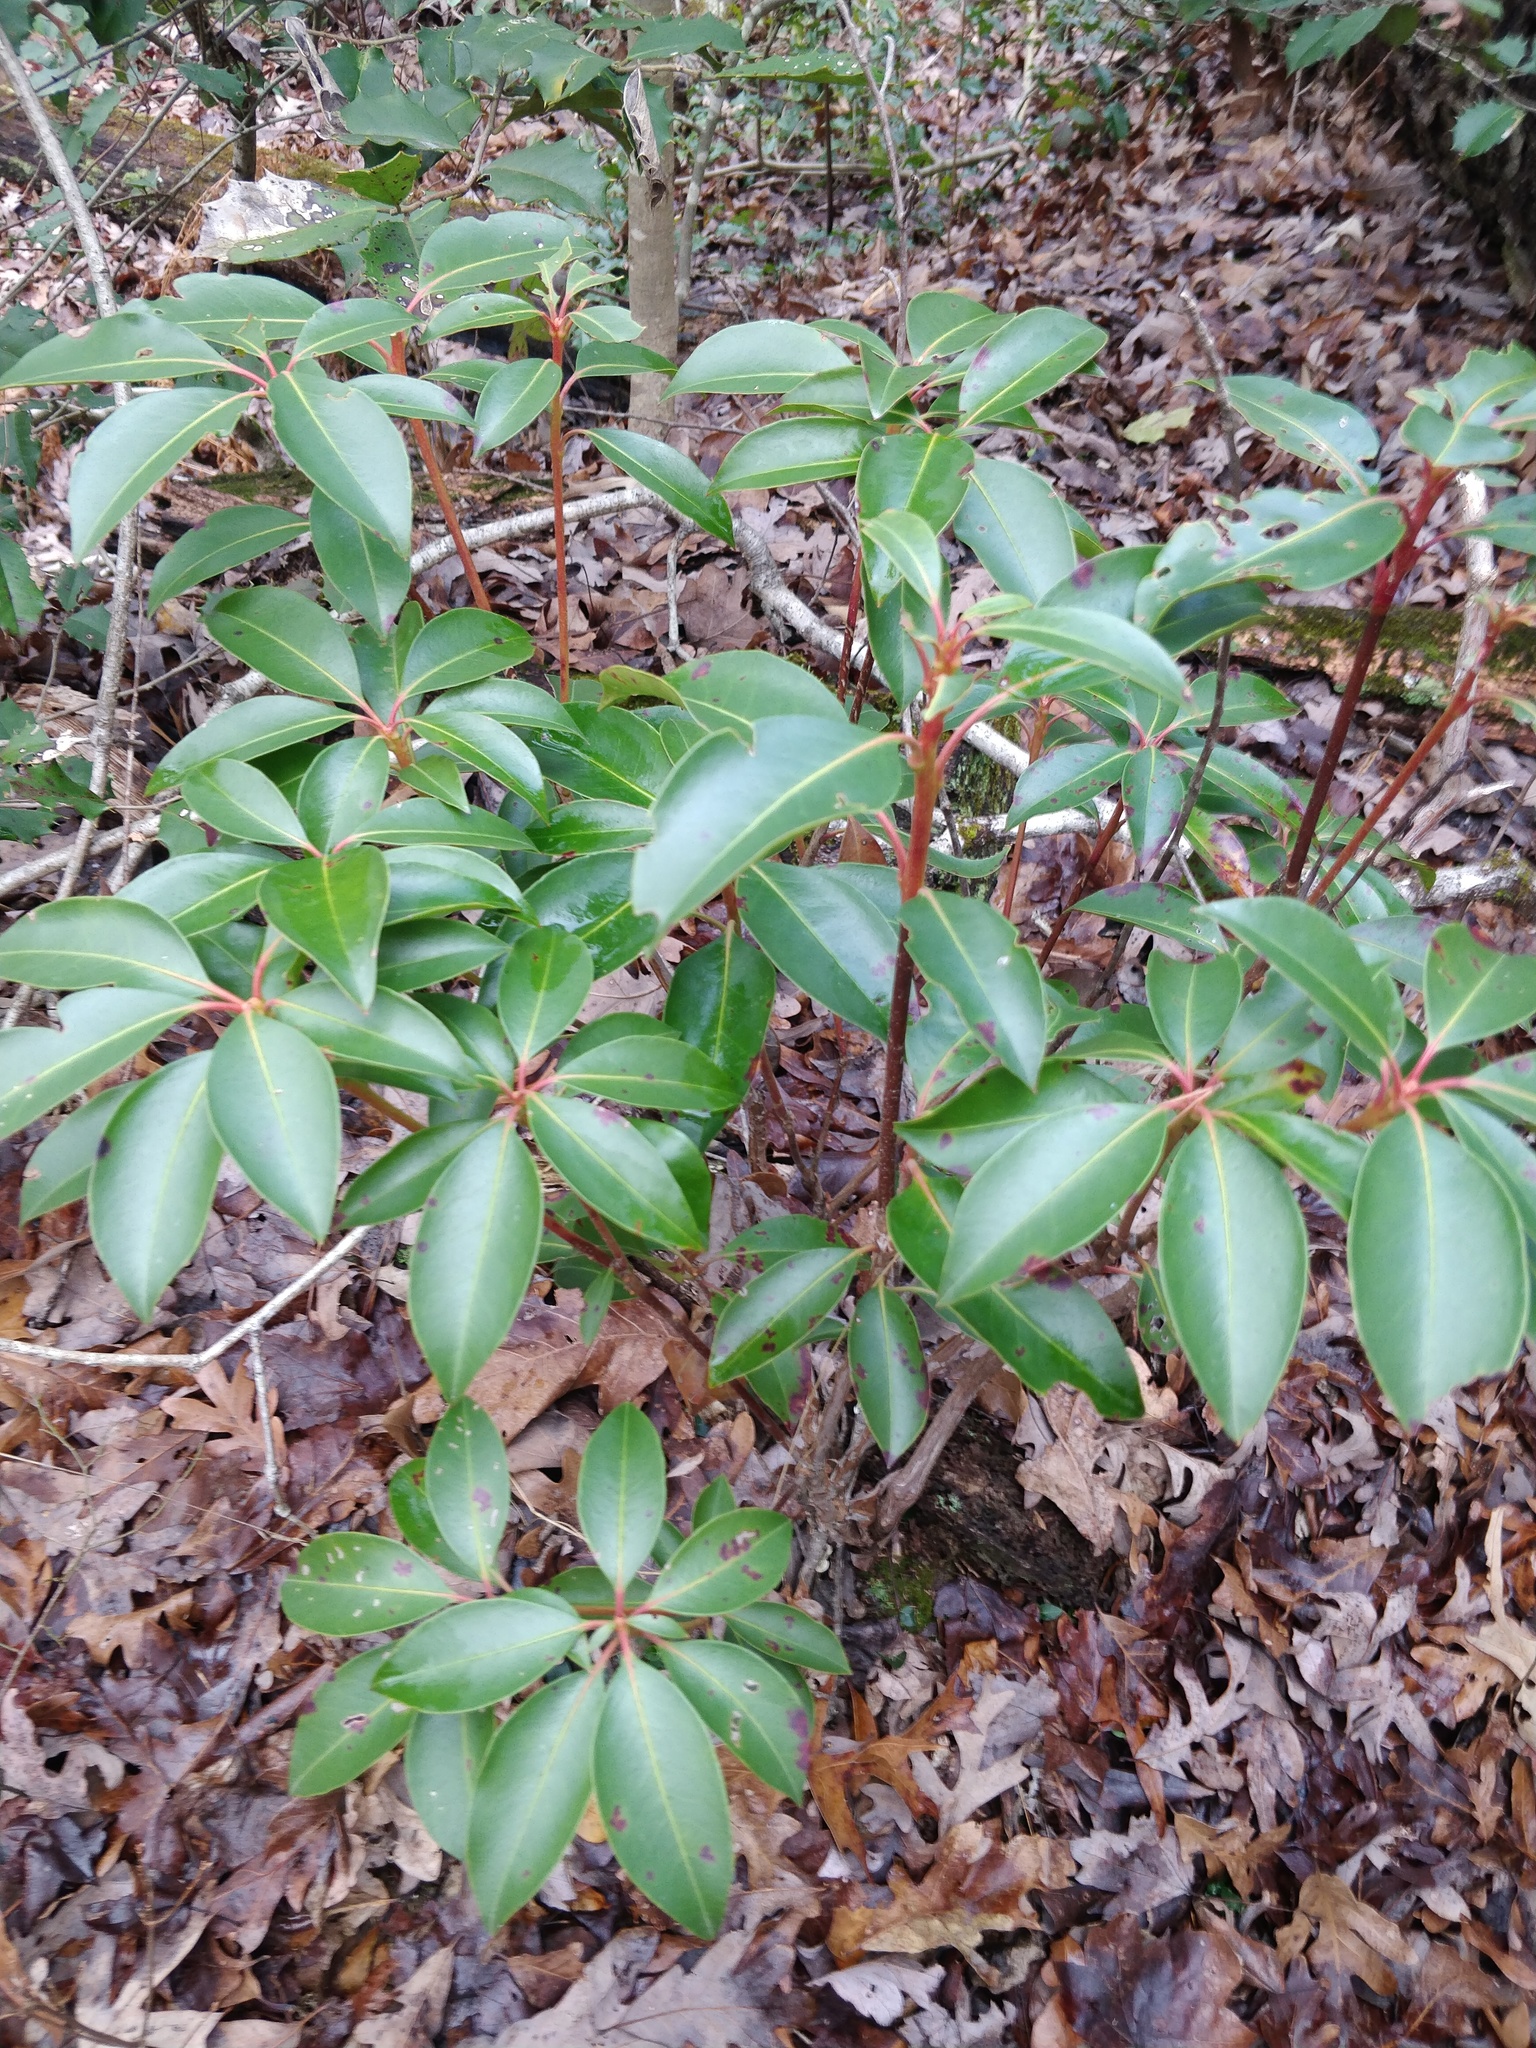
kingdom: Plantae
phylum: Tracheophyta
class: Magnoliopsida
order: Ericales
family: Ericaceae
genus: Kalmia
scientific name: Kalmia latifolia
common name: Mountain-laurel
